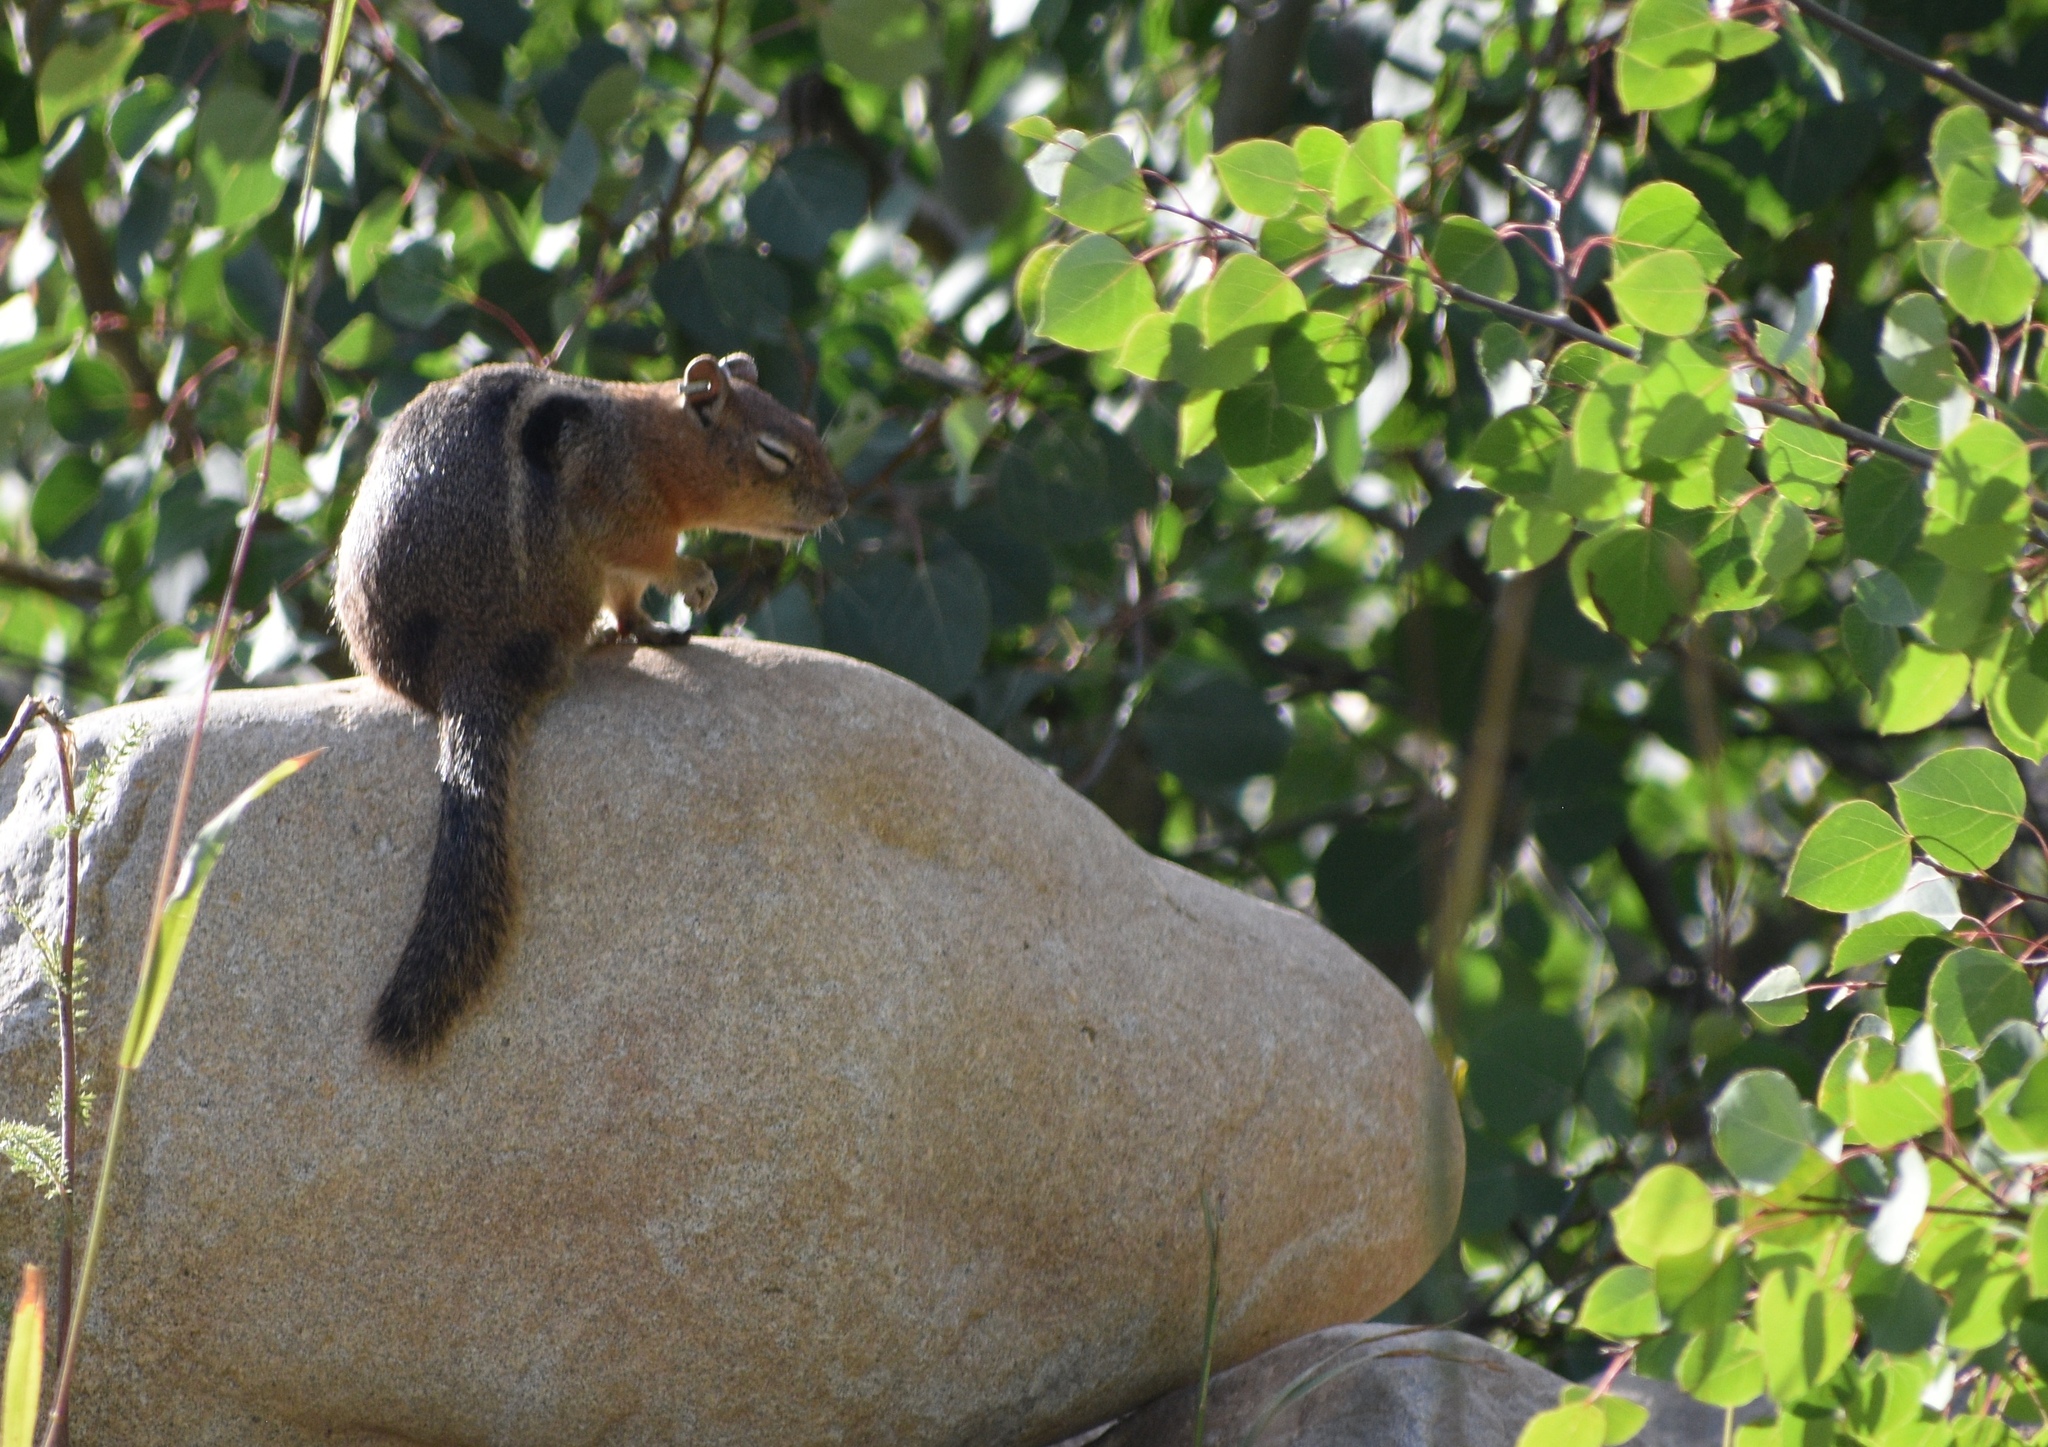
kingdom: Animalia
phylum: Chordata
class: Mammalia
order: Rodentia
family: Sciuridae
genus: Callospermophilus
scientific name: Callospermophilus lateralis
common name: Golden-mantled ground squirrel
